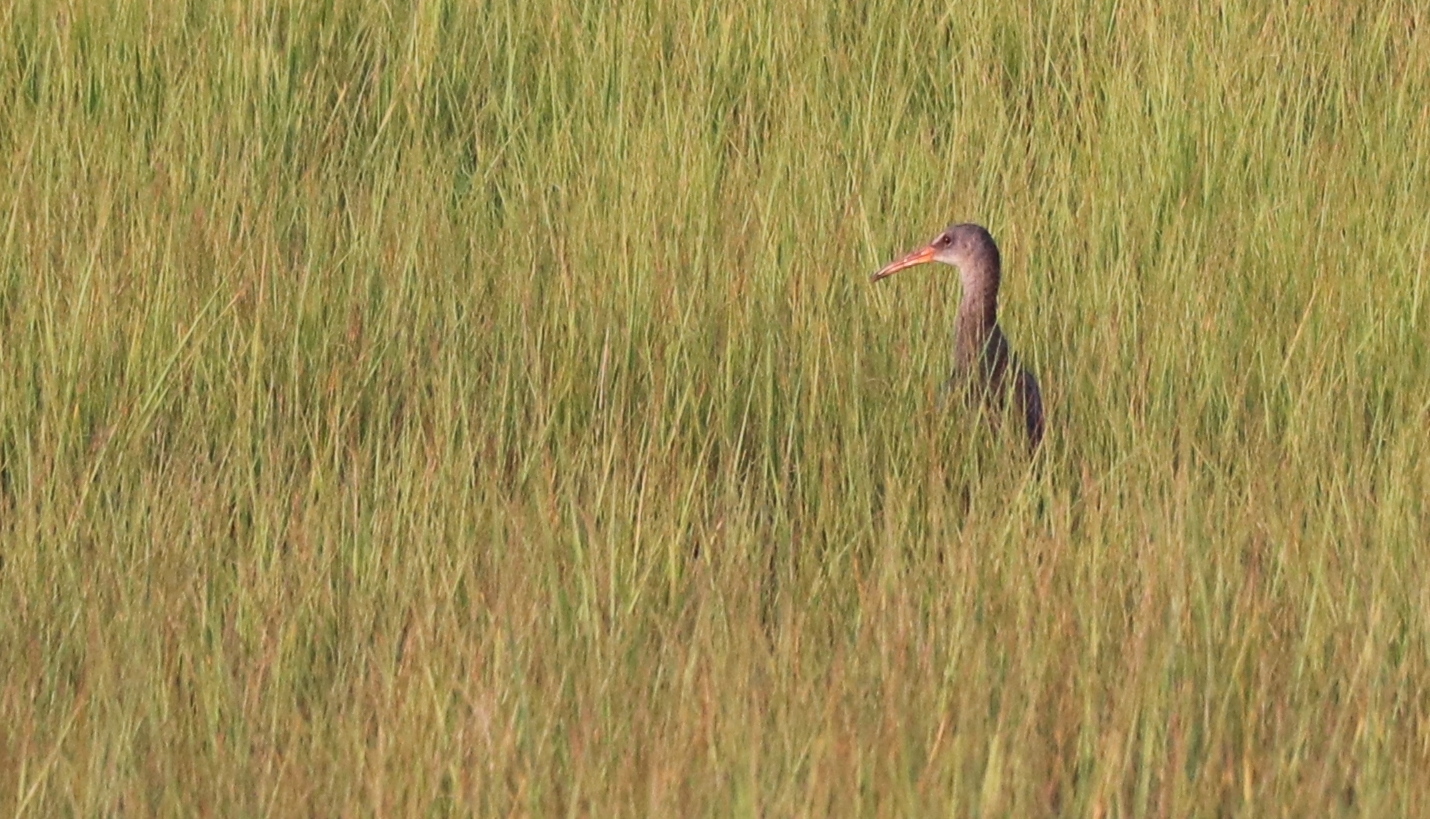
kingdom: Animalia
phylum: Chordata
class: Aves
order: Gruiformes
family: Rallidae
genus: Rallus
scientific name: Rallus crepitans
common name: Clapper rail
